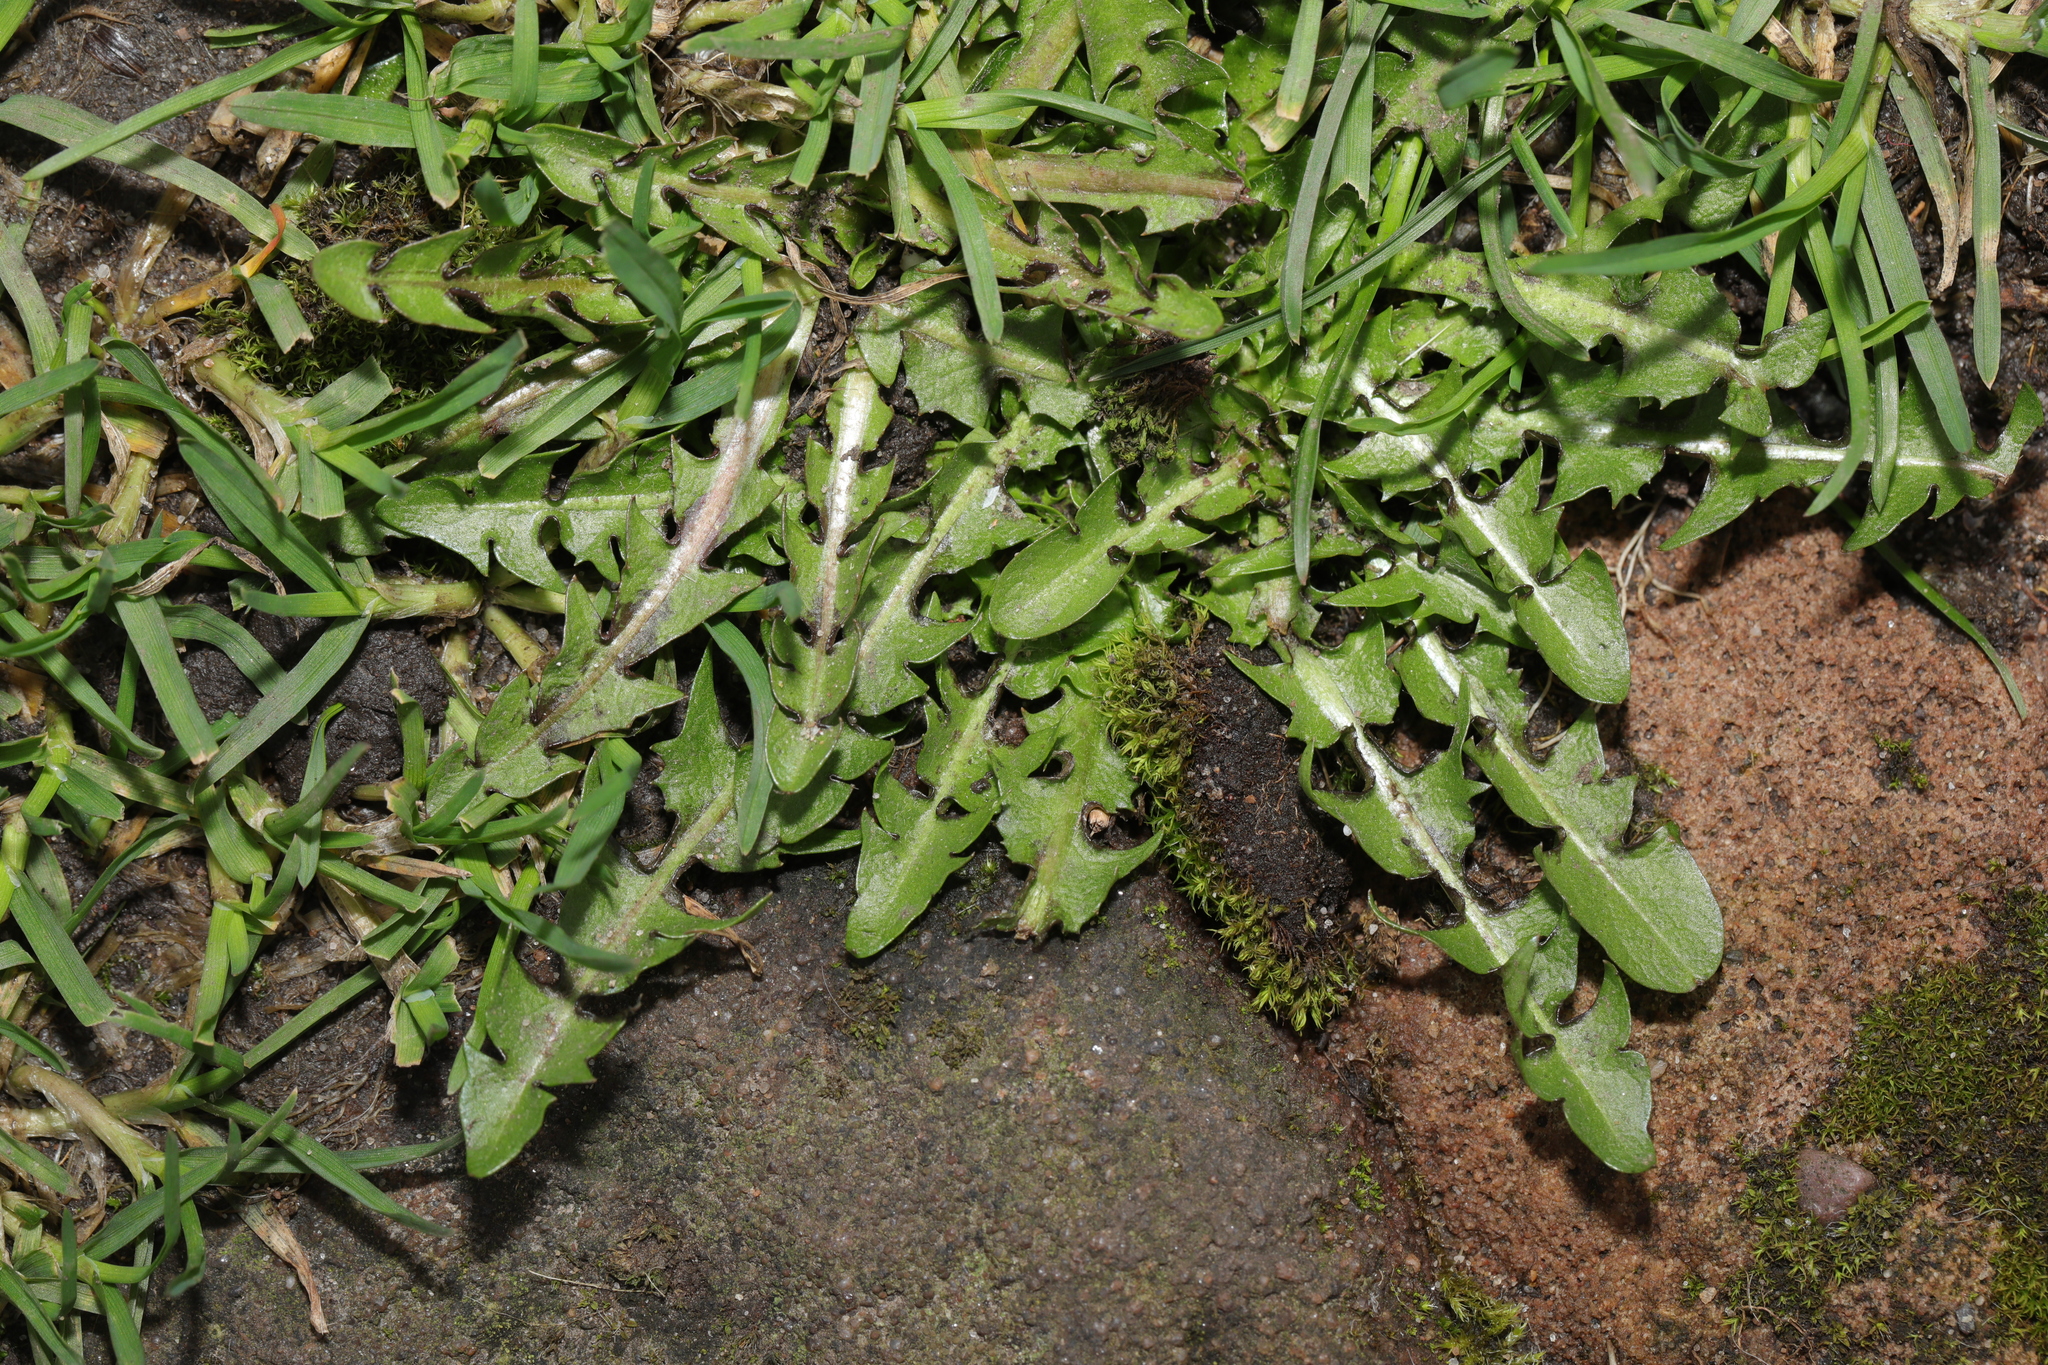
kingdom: Plantae
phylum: Tracheophyta
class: Magnoliopsida
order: Asterales
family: Asteraceae
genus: Taraxacum
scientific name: Taraxacum officinale
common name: Common dandelion
